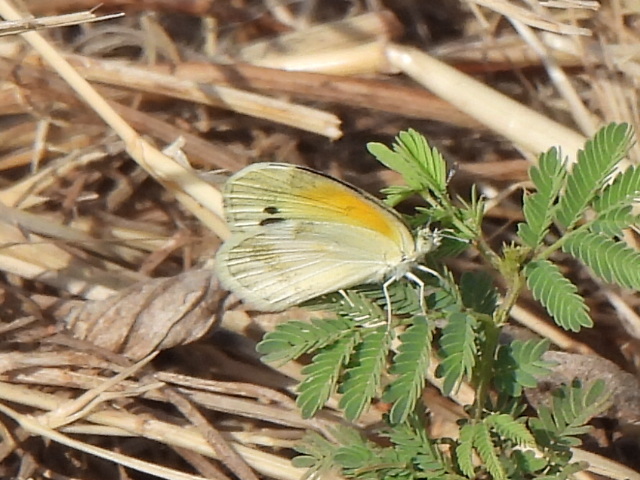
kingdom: Animalia
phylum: Arthropoda
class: Insecta
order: Lepidoptera
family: Pieridae
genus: Nathalis
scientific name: Nathalis iole
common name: Dainty sulphur
